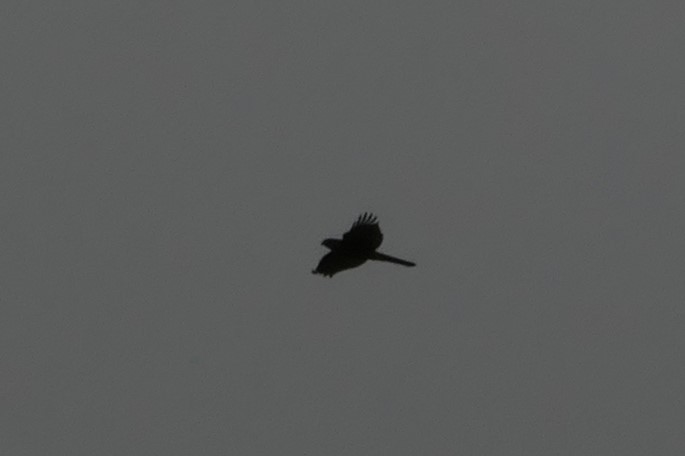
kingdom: Animalia
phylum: Chordata
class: Aves
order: Accipitriformes
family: Accipitridae
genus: Accipiter
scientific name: Accipiter nisus
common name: Eurasian sparrowhawk
